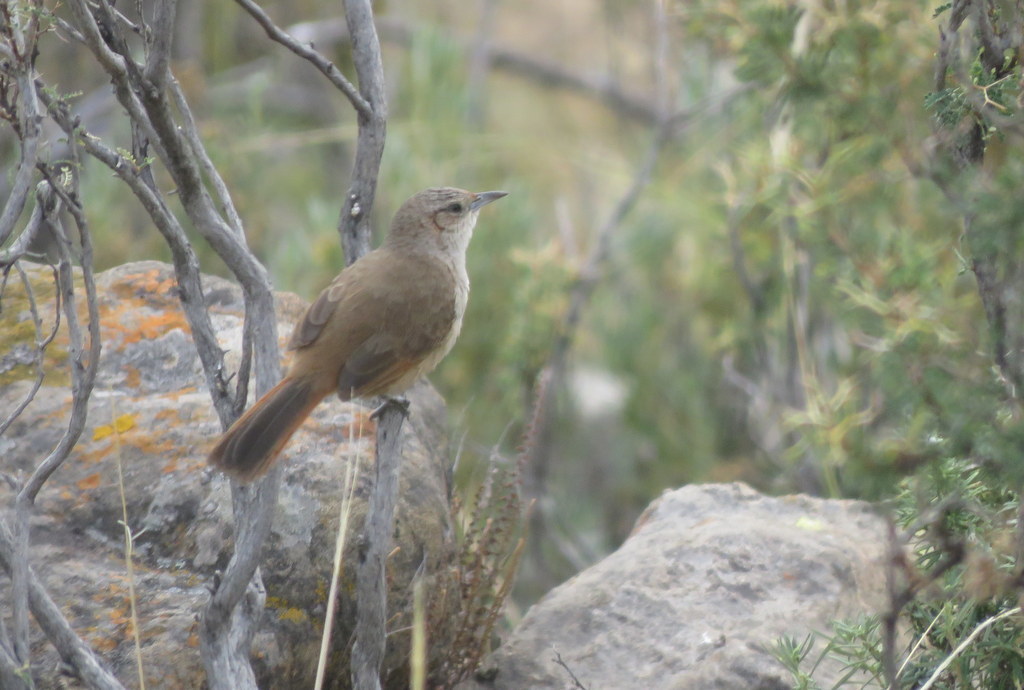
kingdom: Animalia
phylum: Chordata
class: Aves
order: Passeriformes
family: Furnariidae
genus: Phacellodomus
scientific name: Phacellodomus striaticeps
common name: Streak-fronted thornbird
